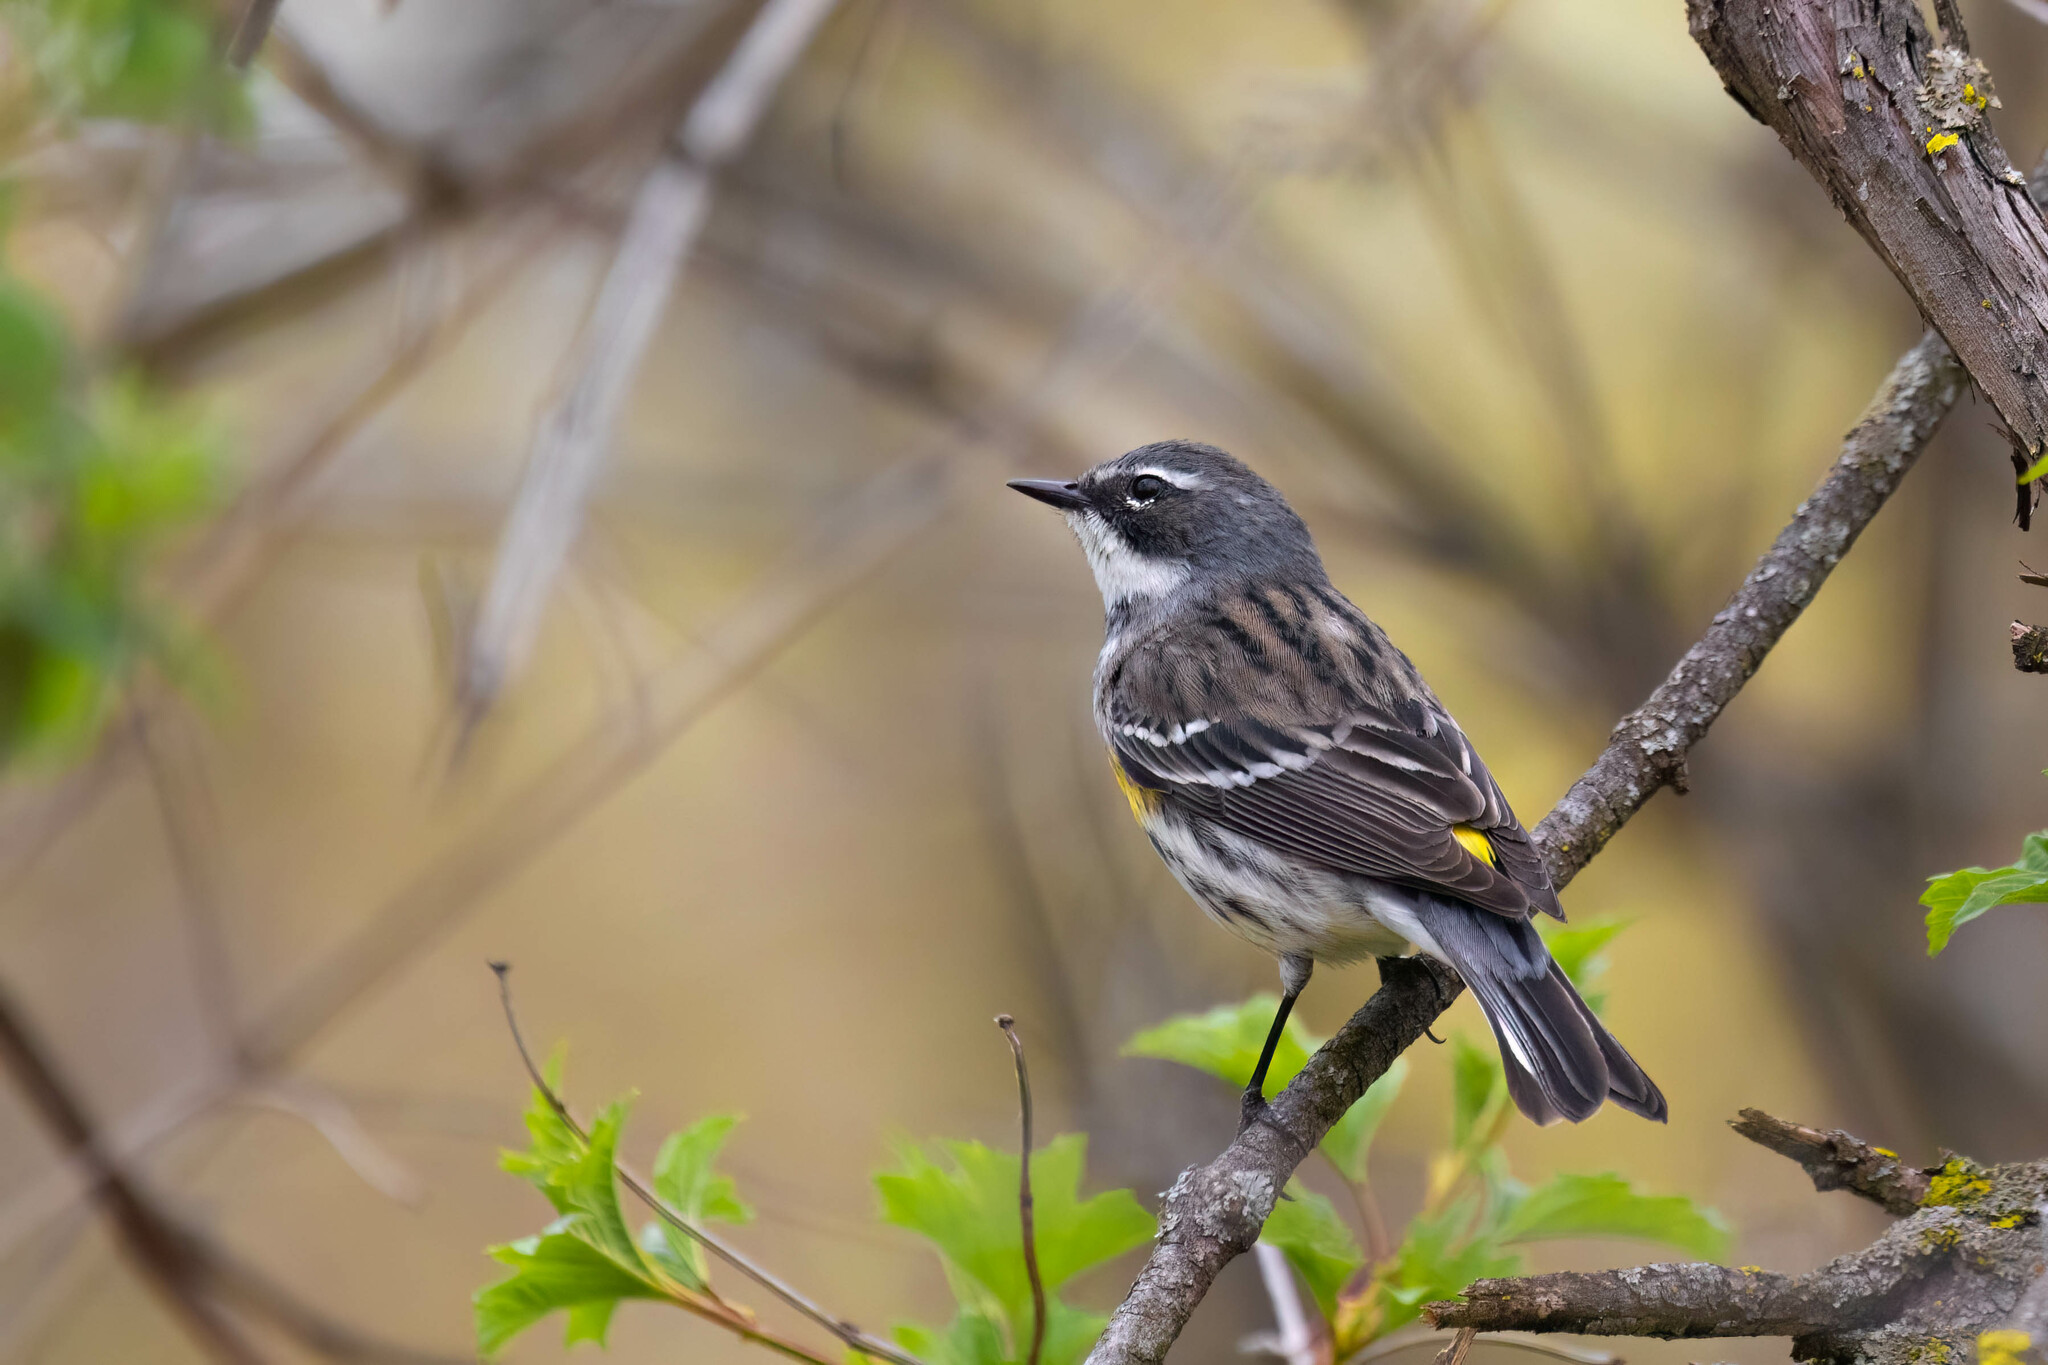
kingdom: Animalia
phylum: Chordata
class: Aves
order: Passeriformes
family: Parulidae
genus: Setophaga
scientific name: Setophaga coronata
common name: Myrtle warbler
